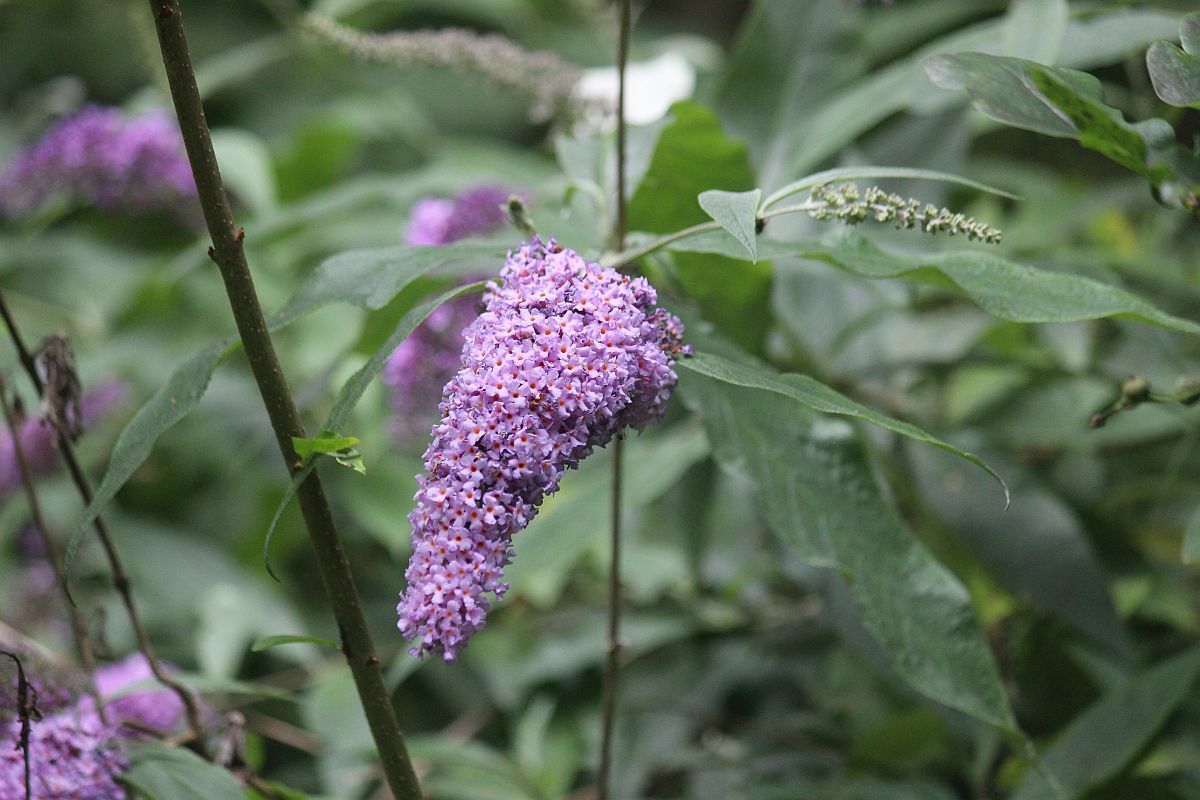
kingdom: Plantae
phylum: Tracheophyta
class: Magnoliopsida
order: Lamiales
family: Scrophulariaceae
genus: Buddleja
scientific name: Buddleja davidii
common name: Butterfly-bush
